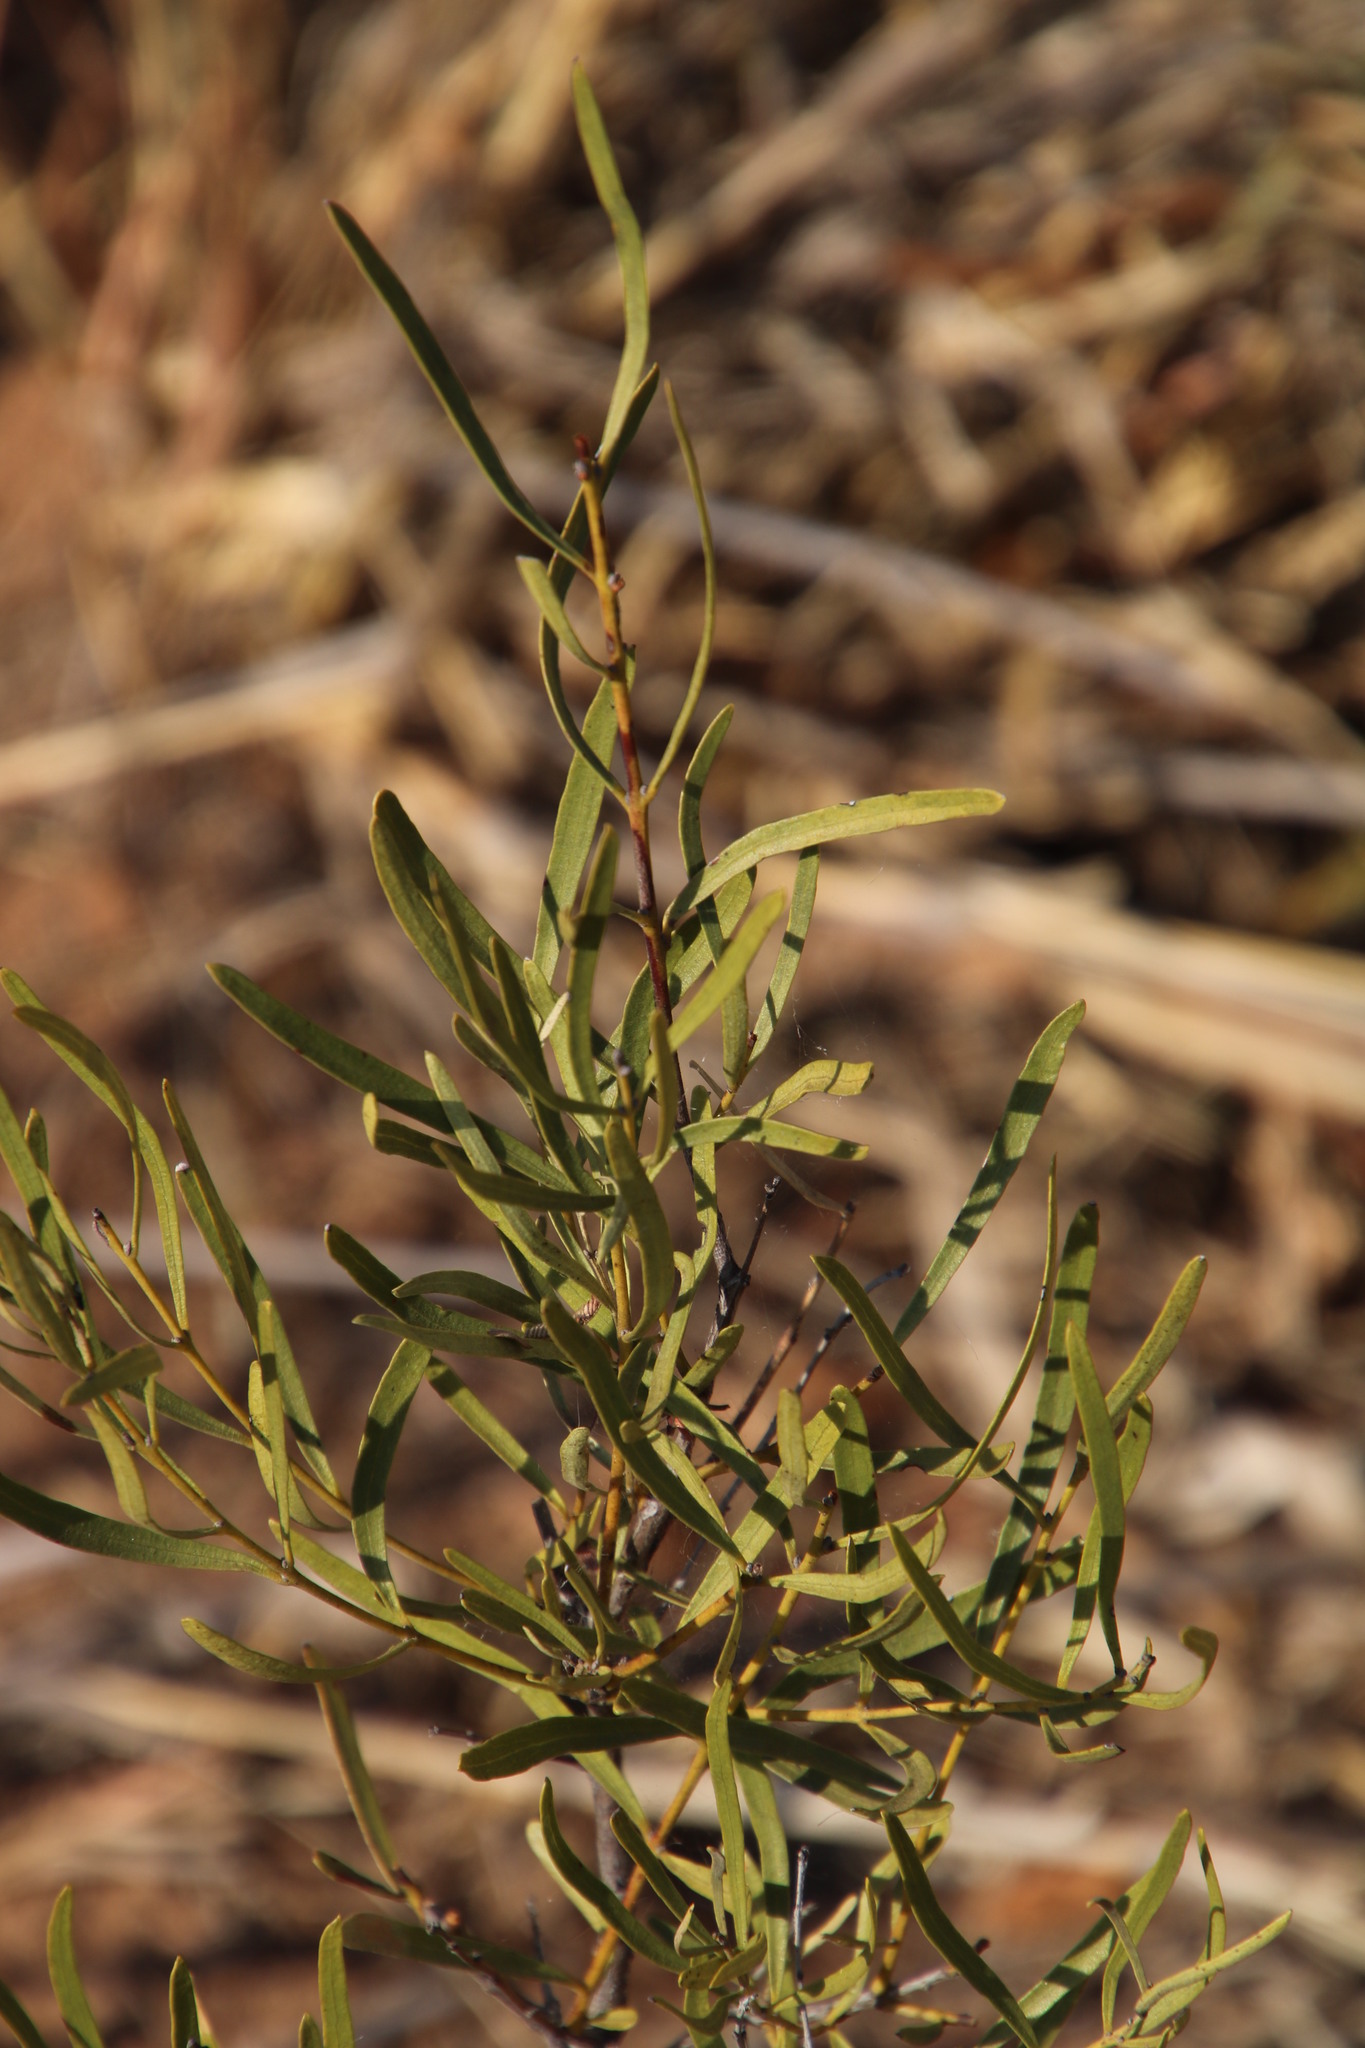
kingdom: Plantae
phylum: Tracheophyta
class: Magnoliopsida
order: Ericales
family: Ebenaceae
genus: Euclea
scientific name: Euclea linearis
